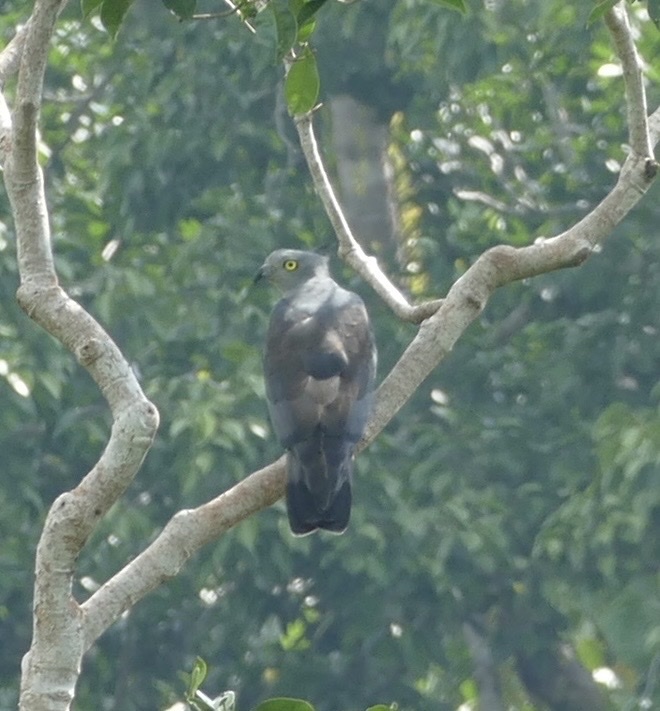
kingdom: Animalia
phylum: Chordata
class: Aves
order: Accipitriformes
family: Accipitridae
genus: Aviceda
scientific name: Aviceda subcristata
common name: Pacific baza
